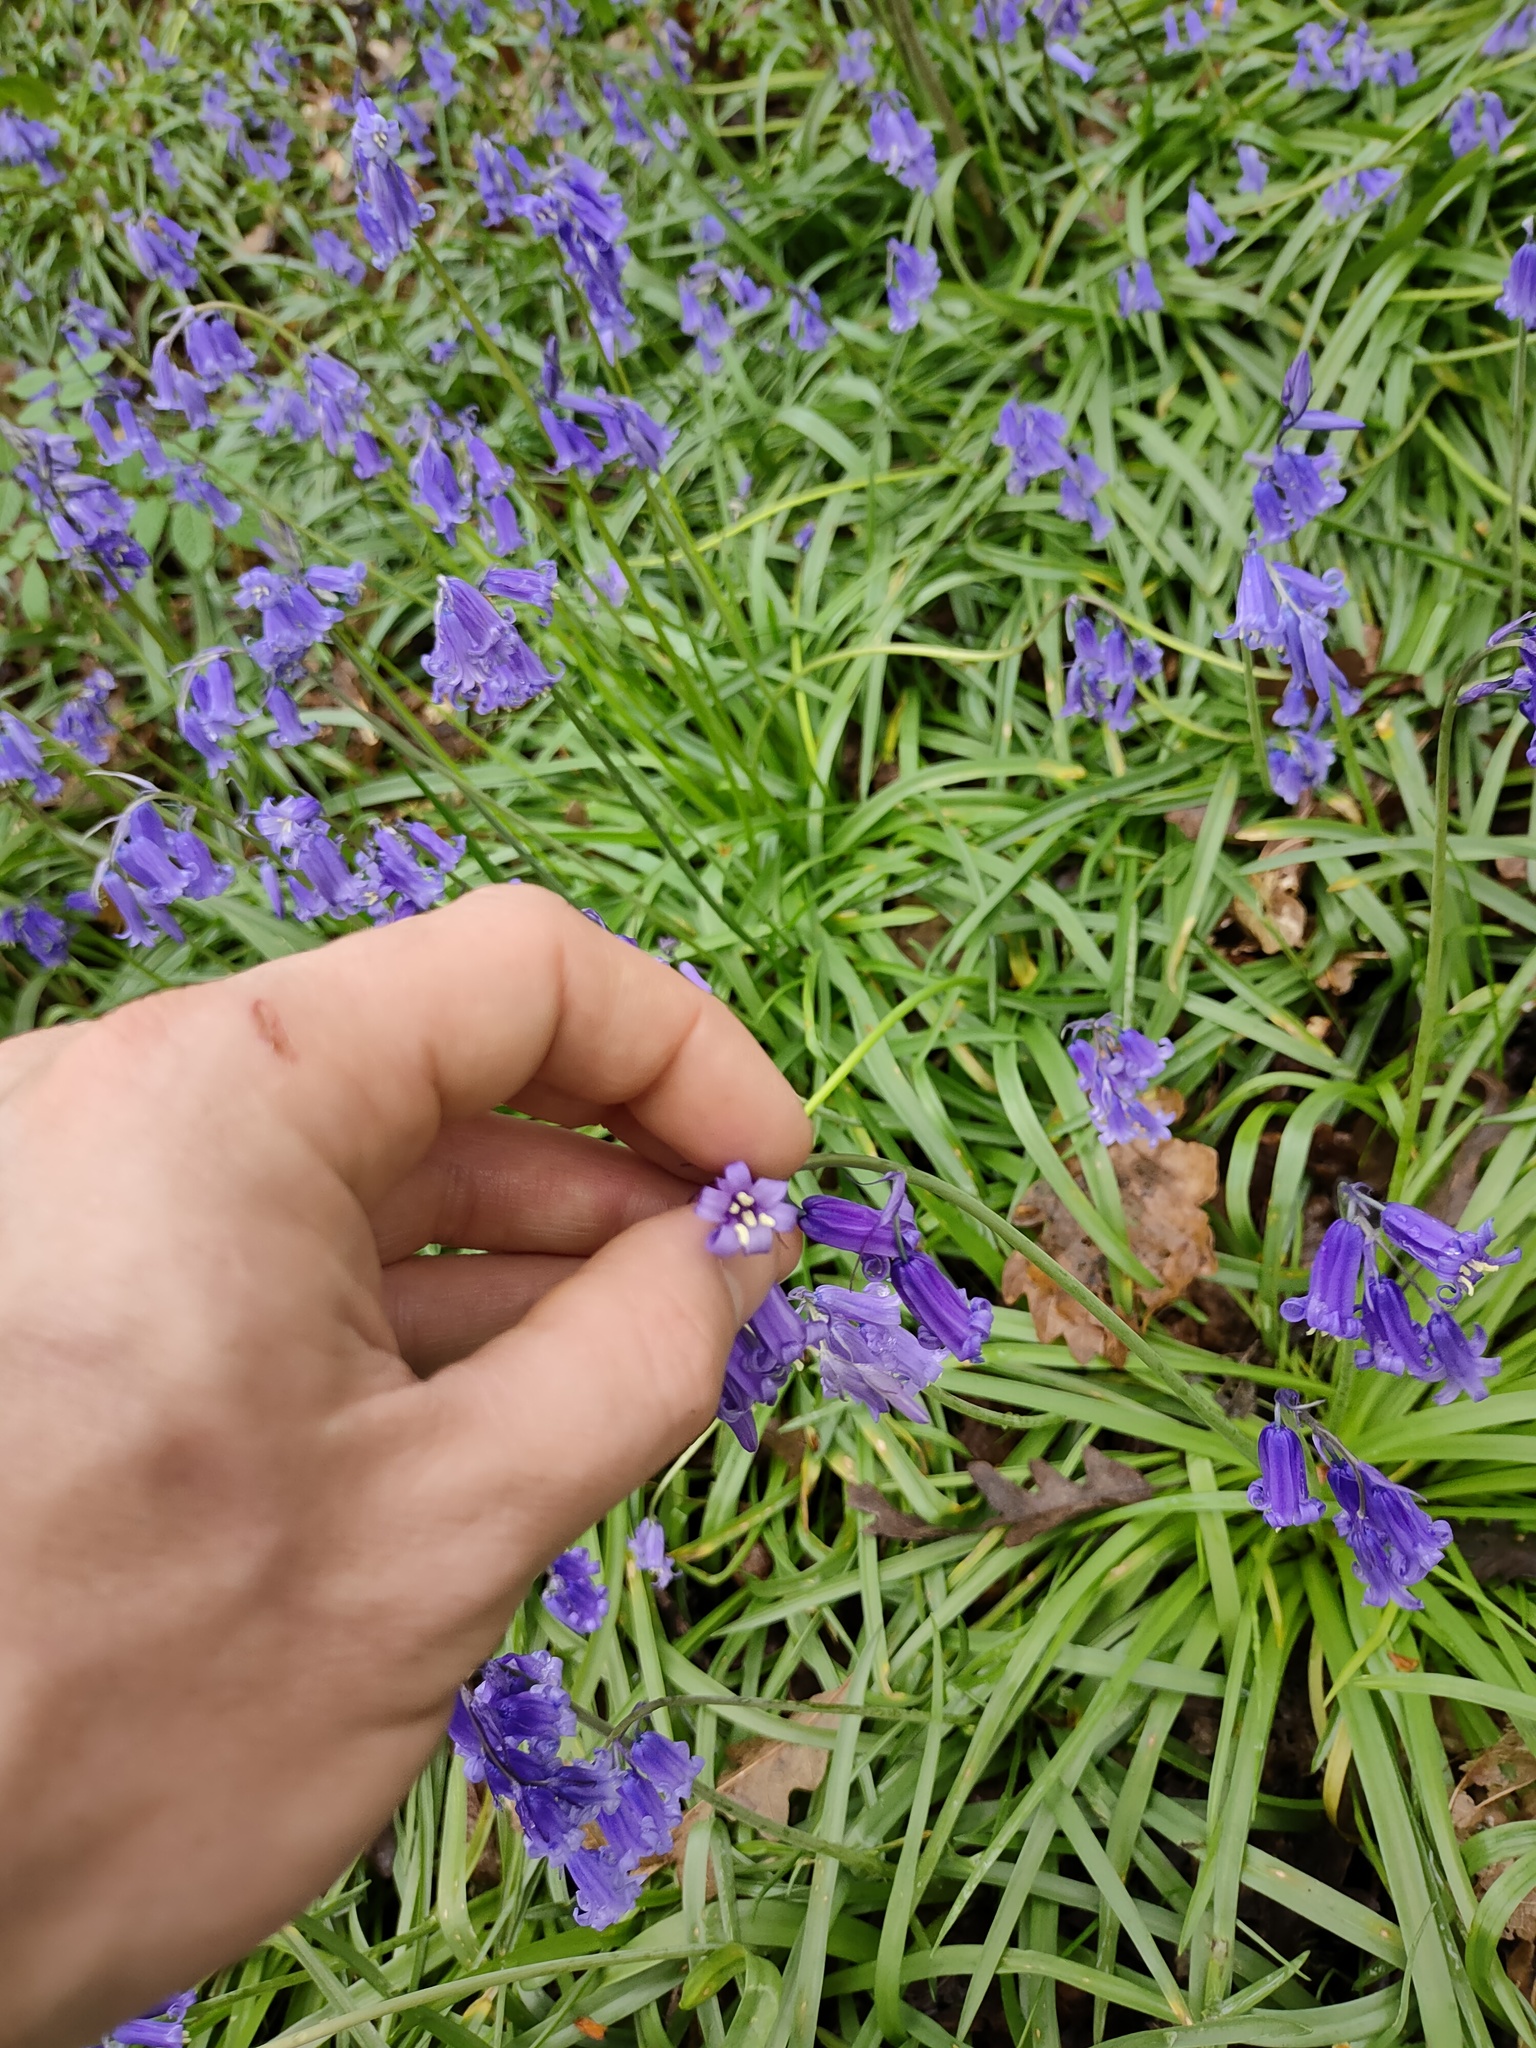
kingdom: Plantae
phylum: Tracheophyta
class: Liliopsida
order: Asparagales
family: Asparagaceae
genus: Hyacinthoides
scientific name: Hyacinthoides non-scripta
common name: Bluebell
